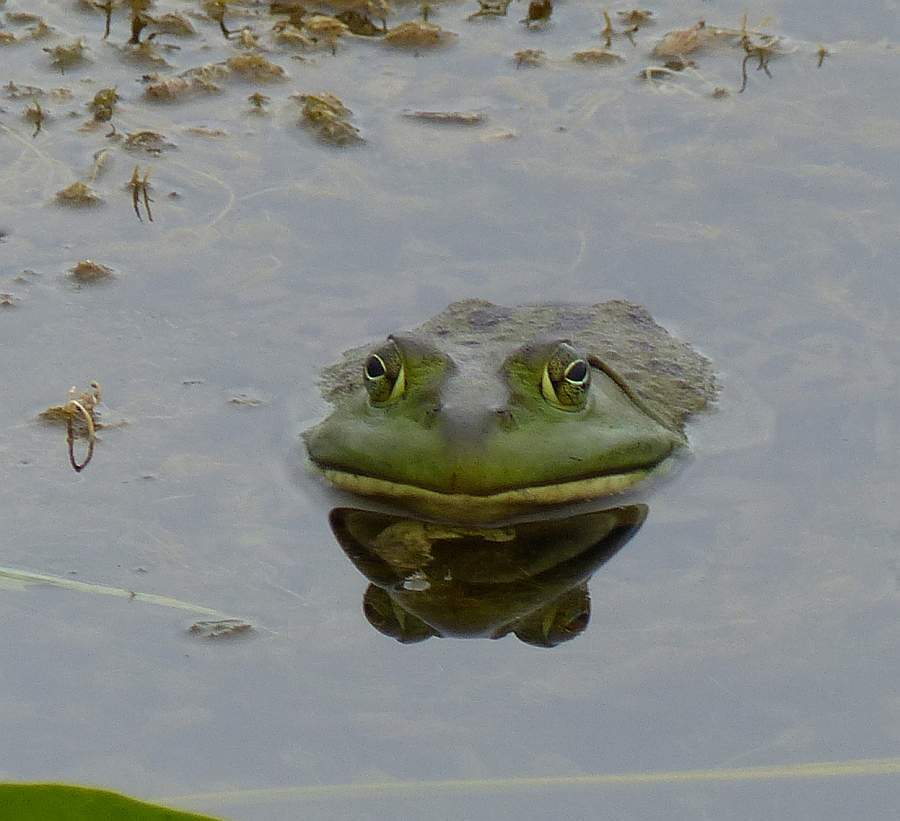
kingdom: Animalia
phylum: Chordata
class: Amphibia
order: Anura
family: Ranidae
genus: Lithobates
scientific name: Lithobates catesbeianus
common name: American bullfrog
